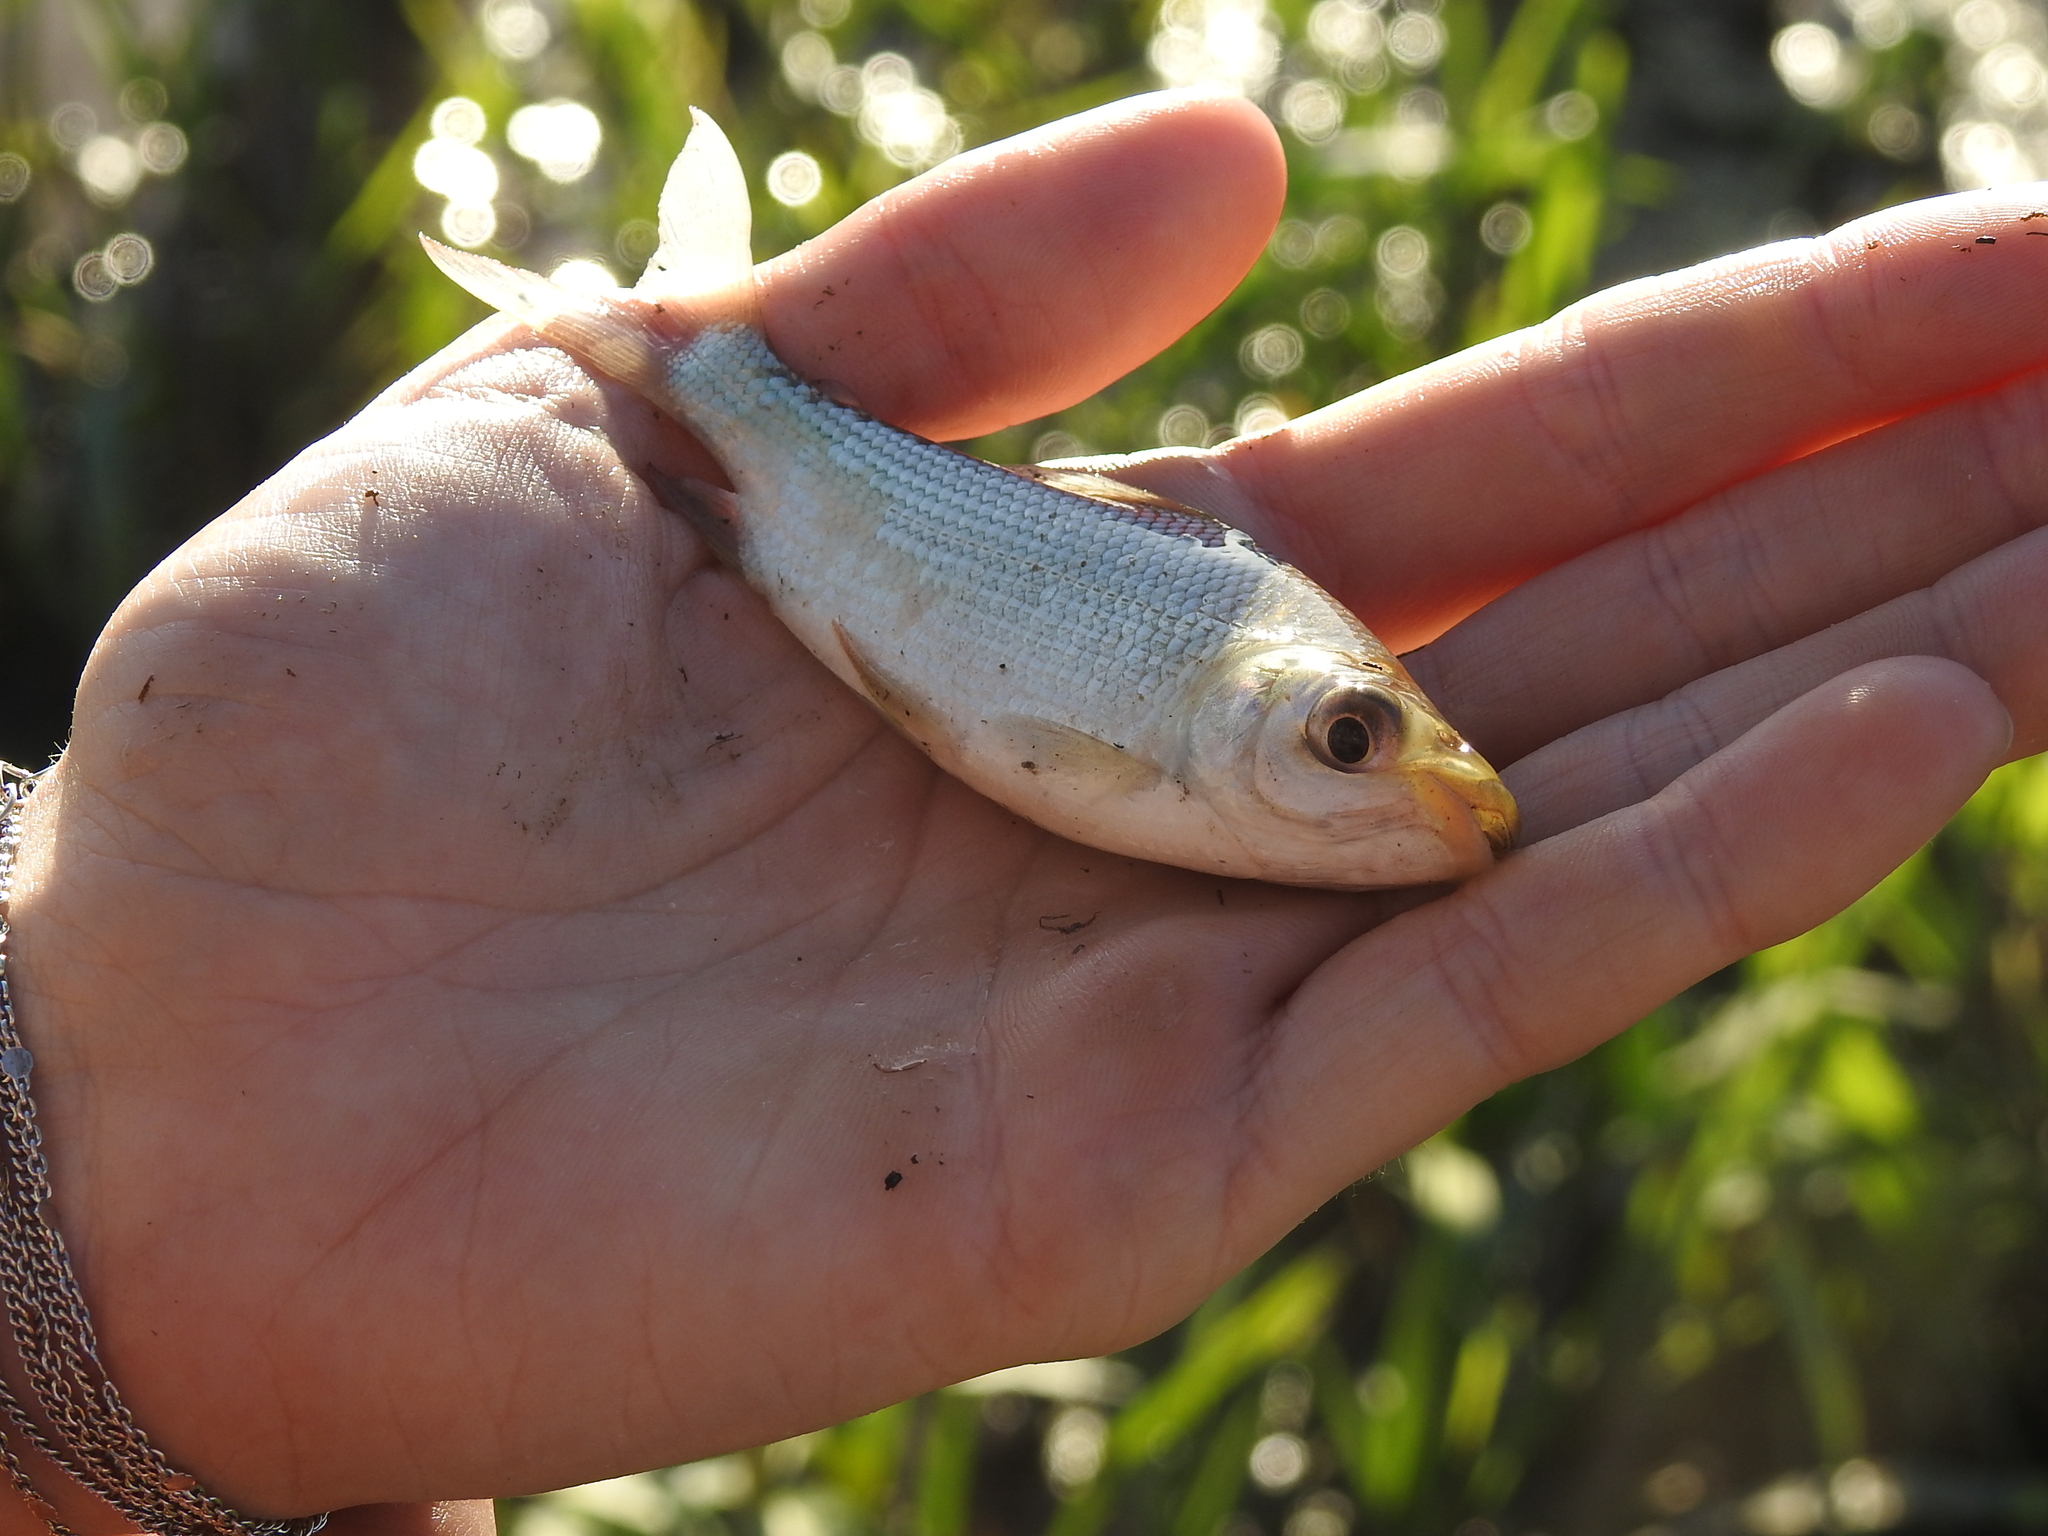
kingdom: Animalia
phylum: Chordata
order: Characiformes
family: Prochilodontidae
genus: Prochilodus
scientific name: Prochilodus lineatus
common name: Curimbata
